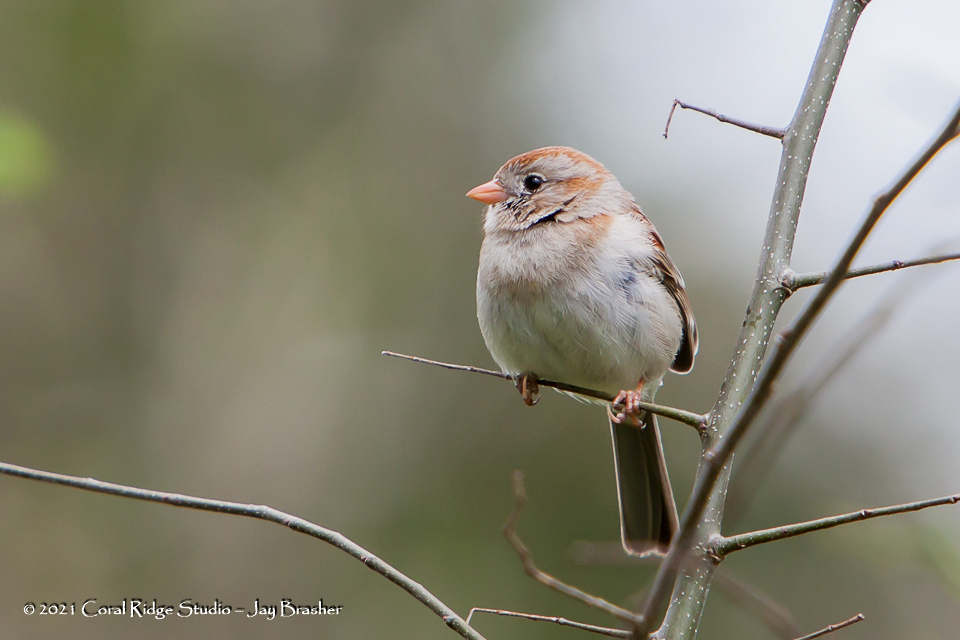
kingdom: Animalia
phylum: Chordata
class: Aves
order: Passeriformes
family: Passerellidae
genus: Spizella
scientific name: Spizella pusilla
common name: Field sparrow
